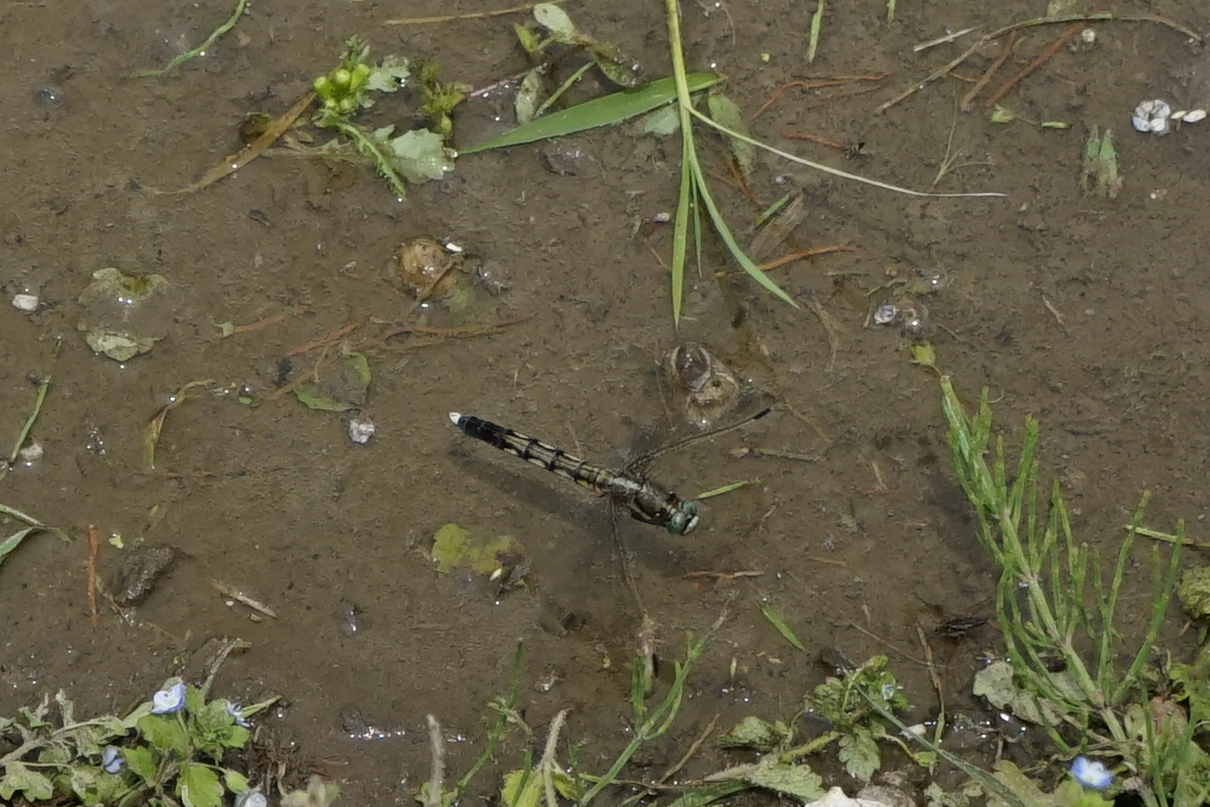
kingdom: Animalia
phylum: Arthropoda
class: Insecta
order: Odonata
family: Libellulidae
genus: Orthetrum
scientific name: Orthetrum albistylum
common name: White-tailed skimmer
